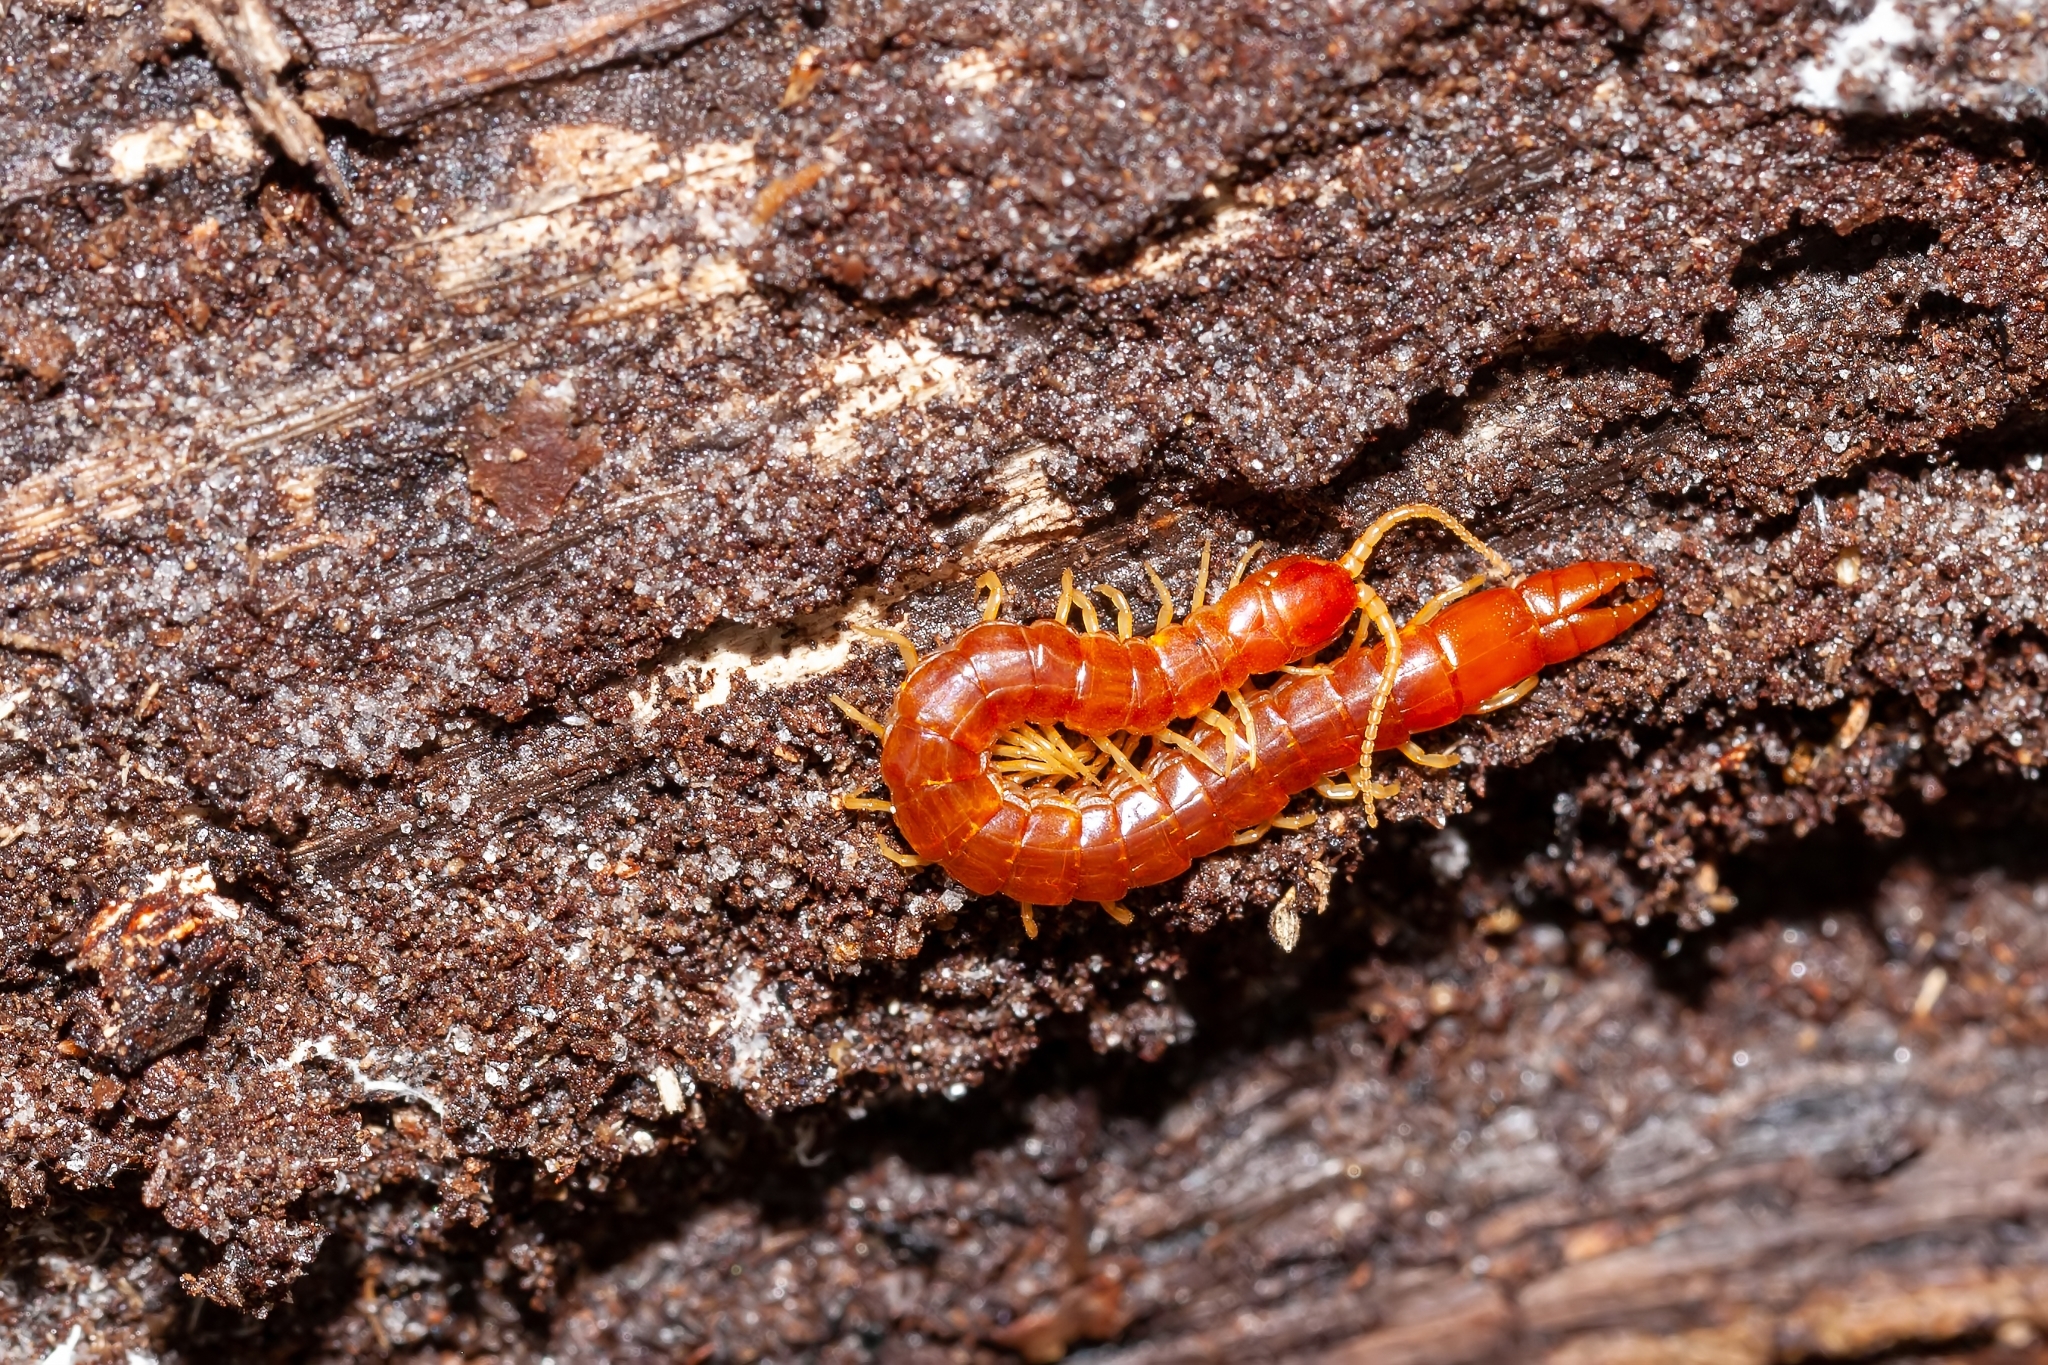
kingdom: Animalia
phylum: Arthropoda
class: Chilopoda
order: Scolopendromorpha
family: Cryptopidae
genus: Theatops
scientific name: Theatops posticus
